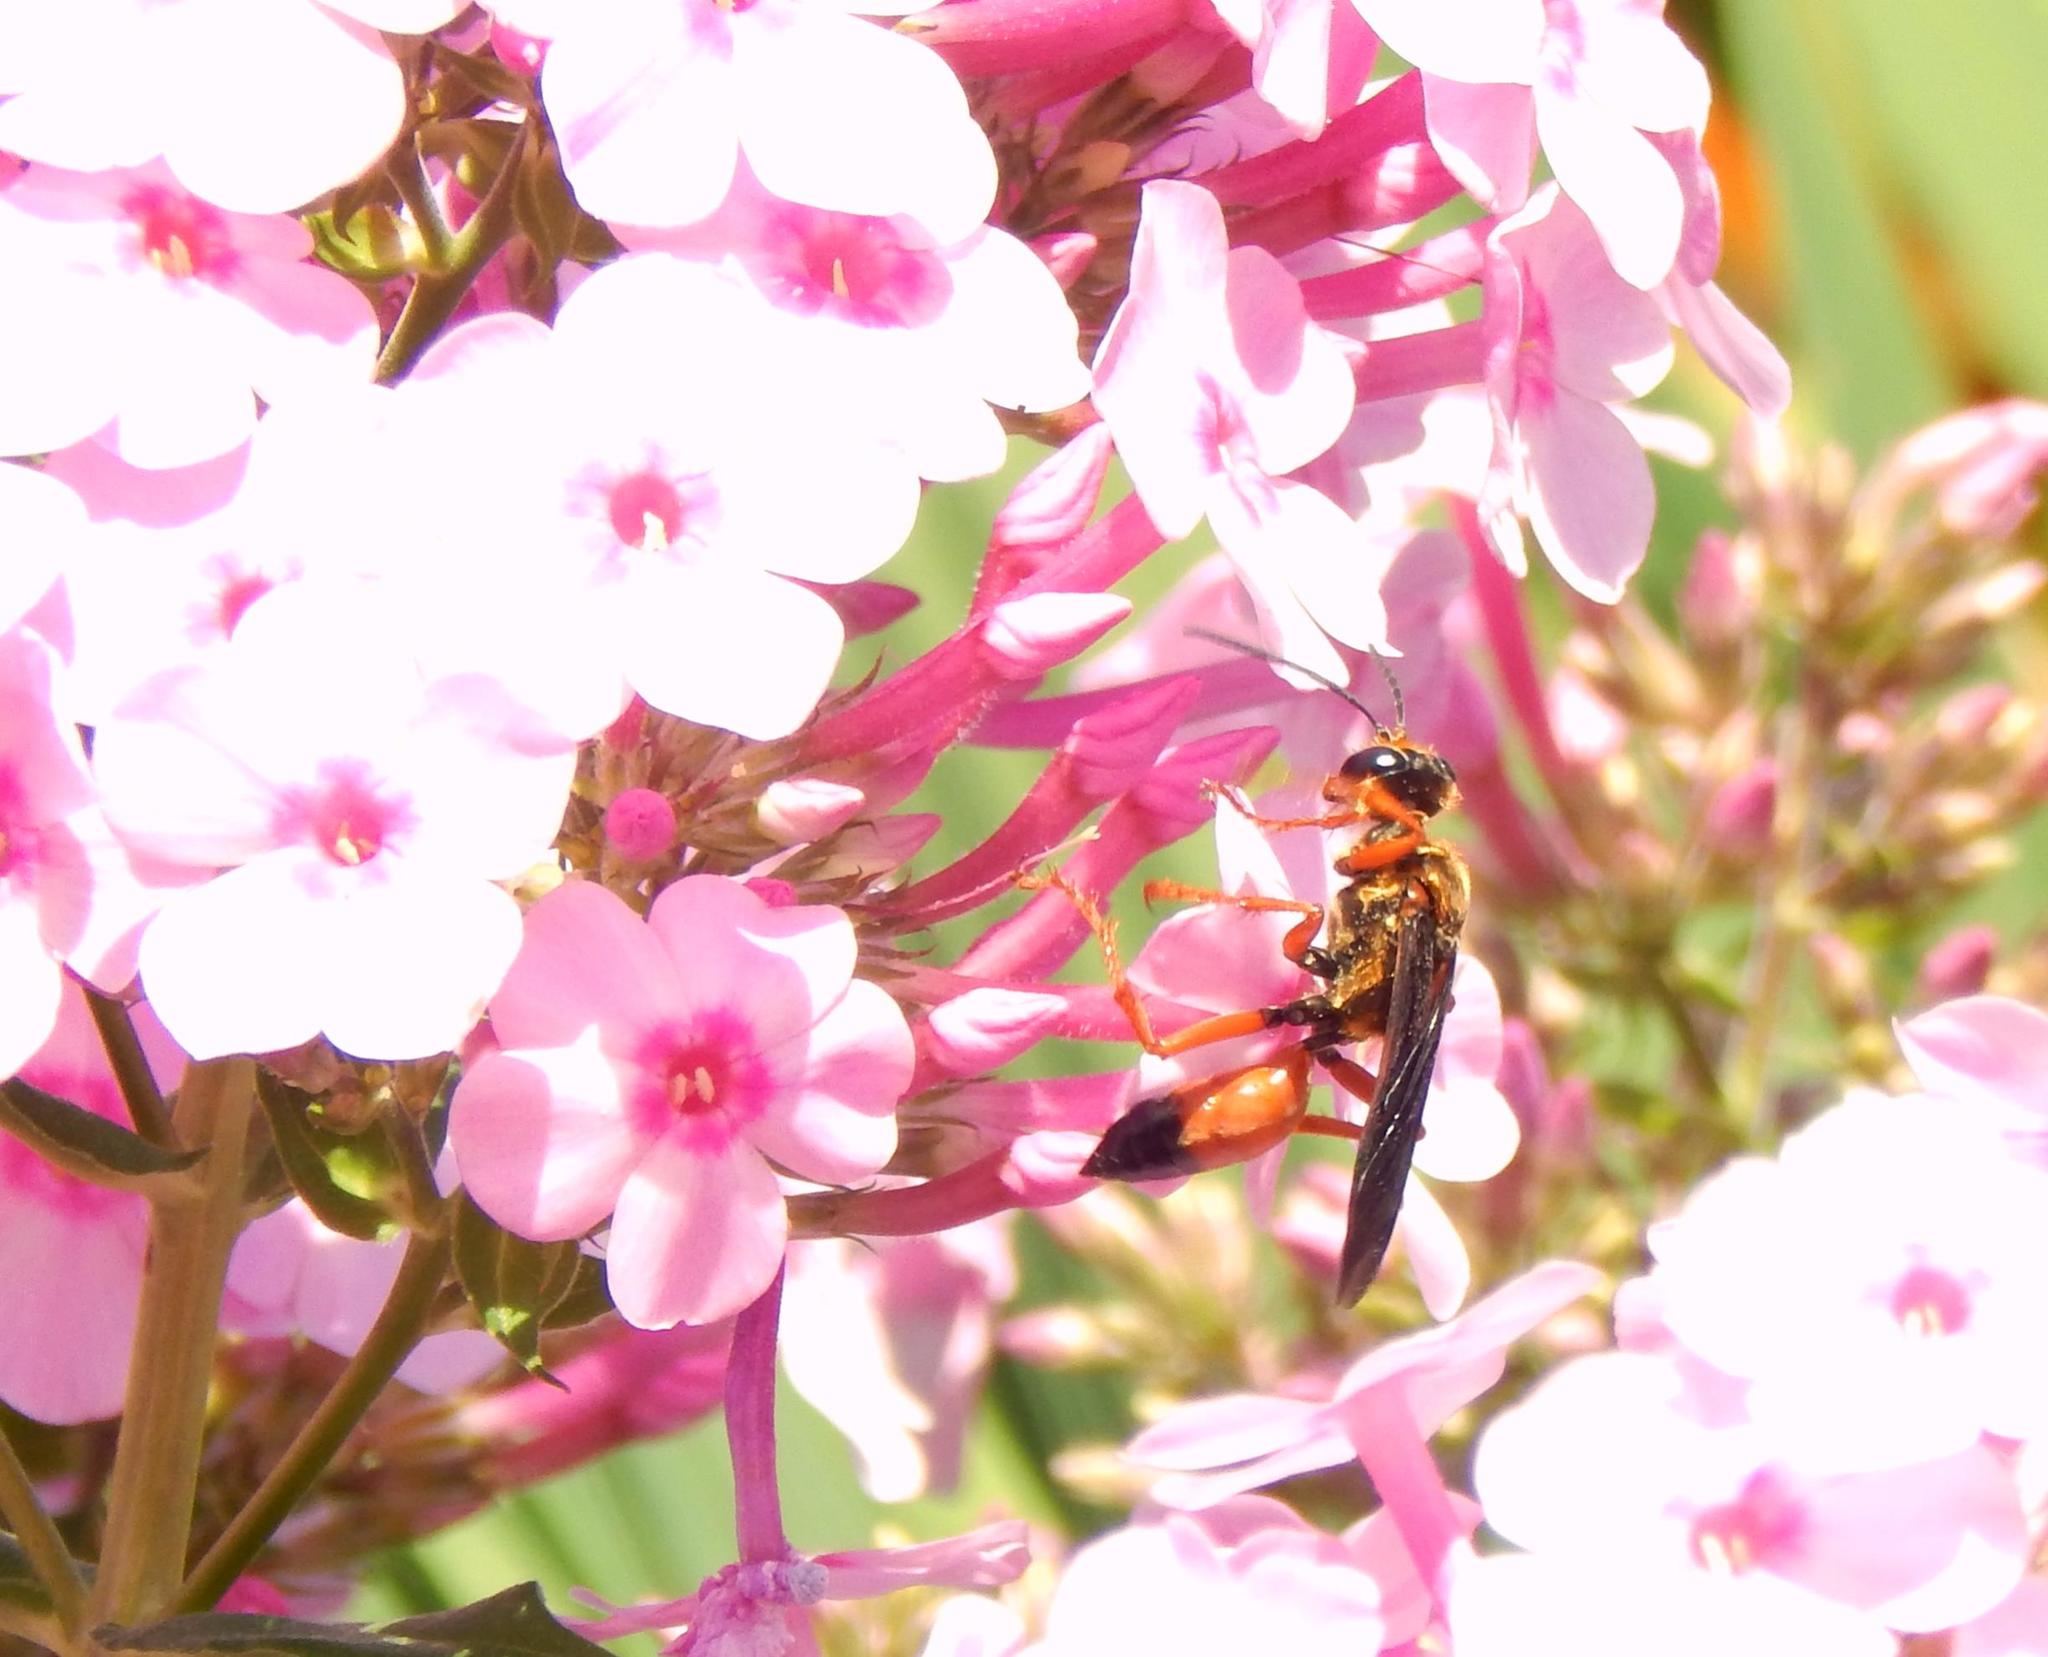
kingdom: Animalia
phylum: Arthropoda
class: Insecta
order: Hymenoptera
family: Sphecidae
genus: Sphex
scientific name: Sphex ichneumoneus
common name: Great golden digger wasp
